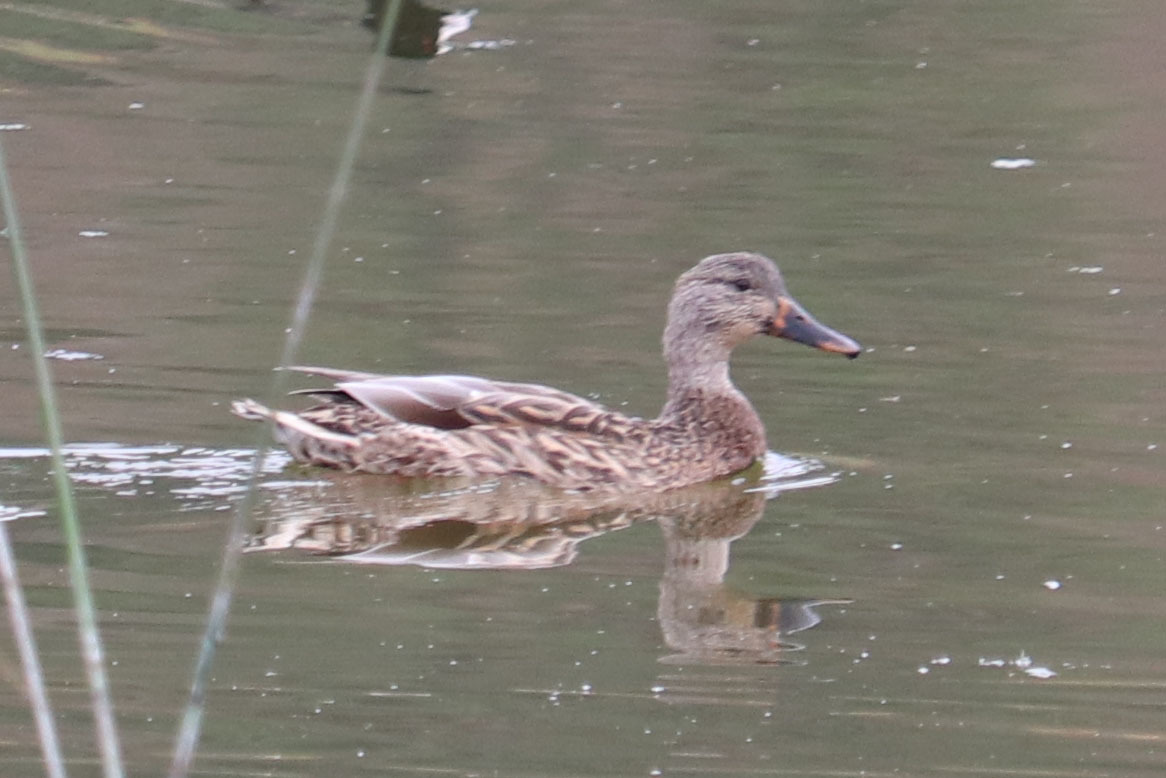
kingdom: Animalia
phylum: Chordata
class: Aves
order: Anseriformes
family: Anatidae
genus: Anas
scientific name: Anas platyrhynchos
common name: Mallard
